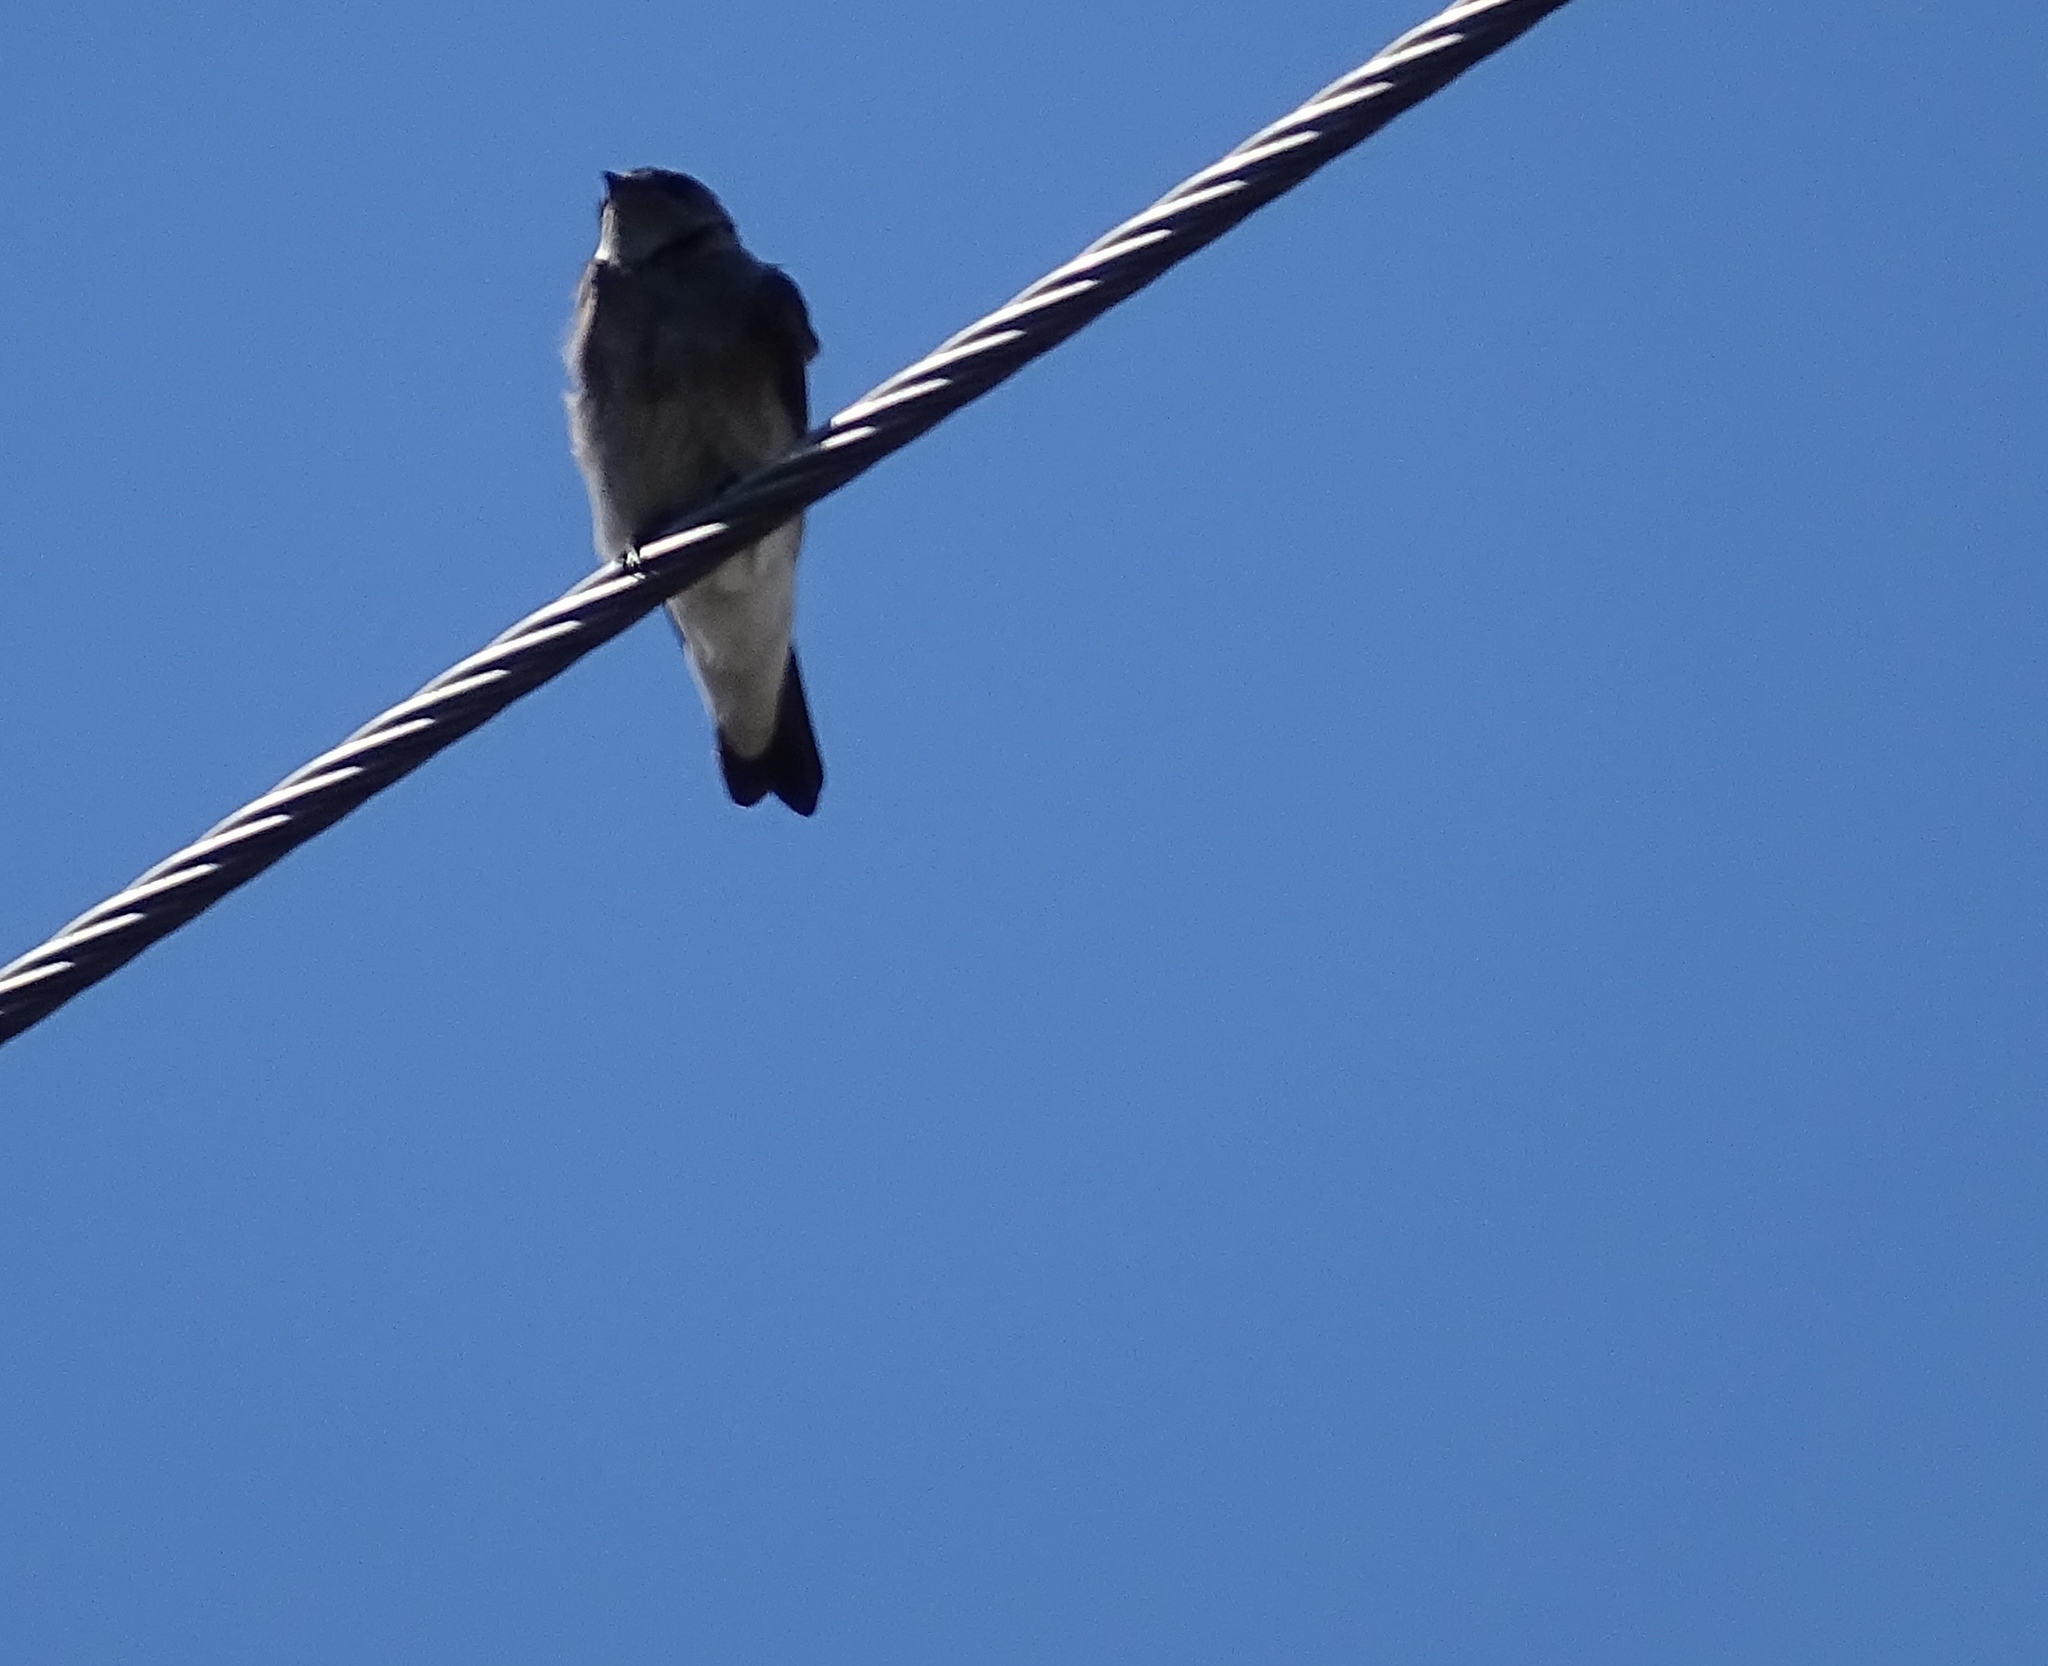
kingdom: Animalia
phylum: Chordata
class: Aves
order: Passeriformes
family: Hirundinidae
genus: Stelgidopteryx
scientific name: Stelgidopteryx serripennis
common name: Northern rough-winged swallow
